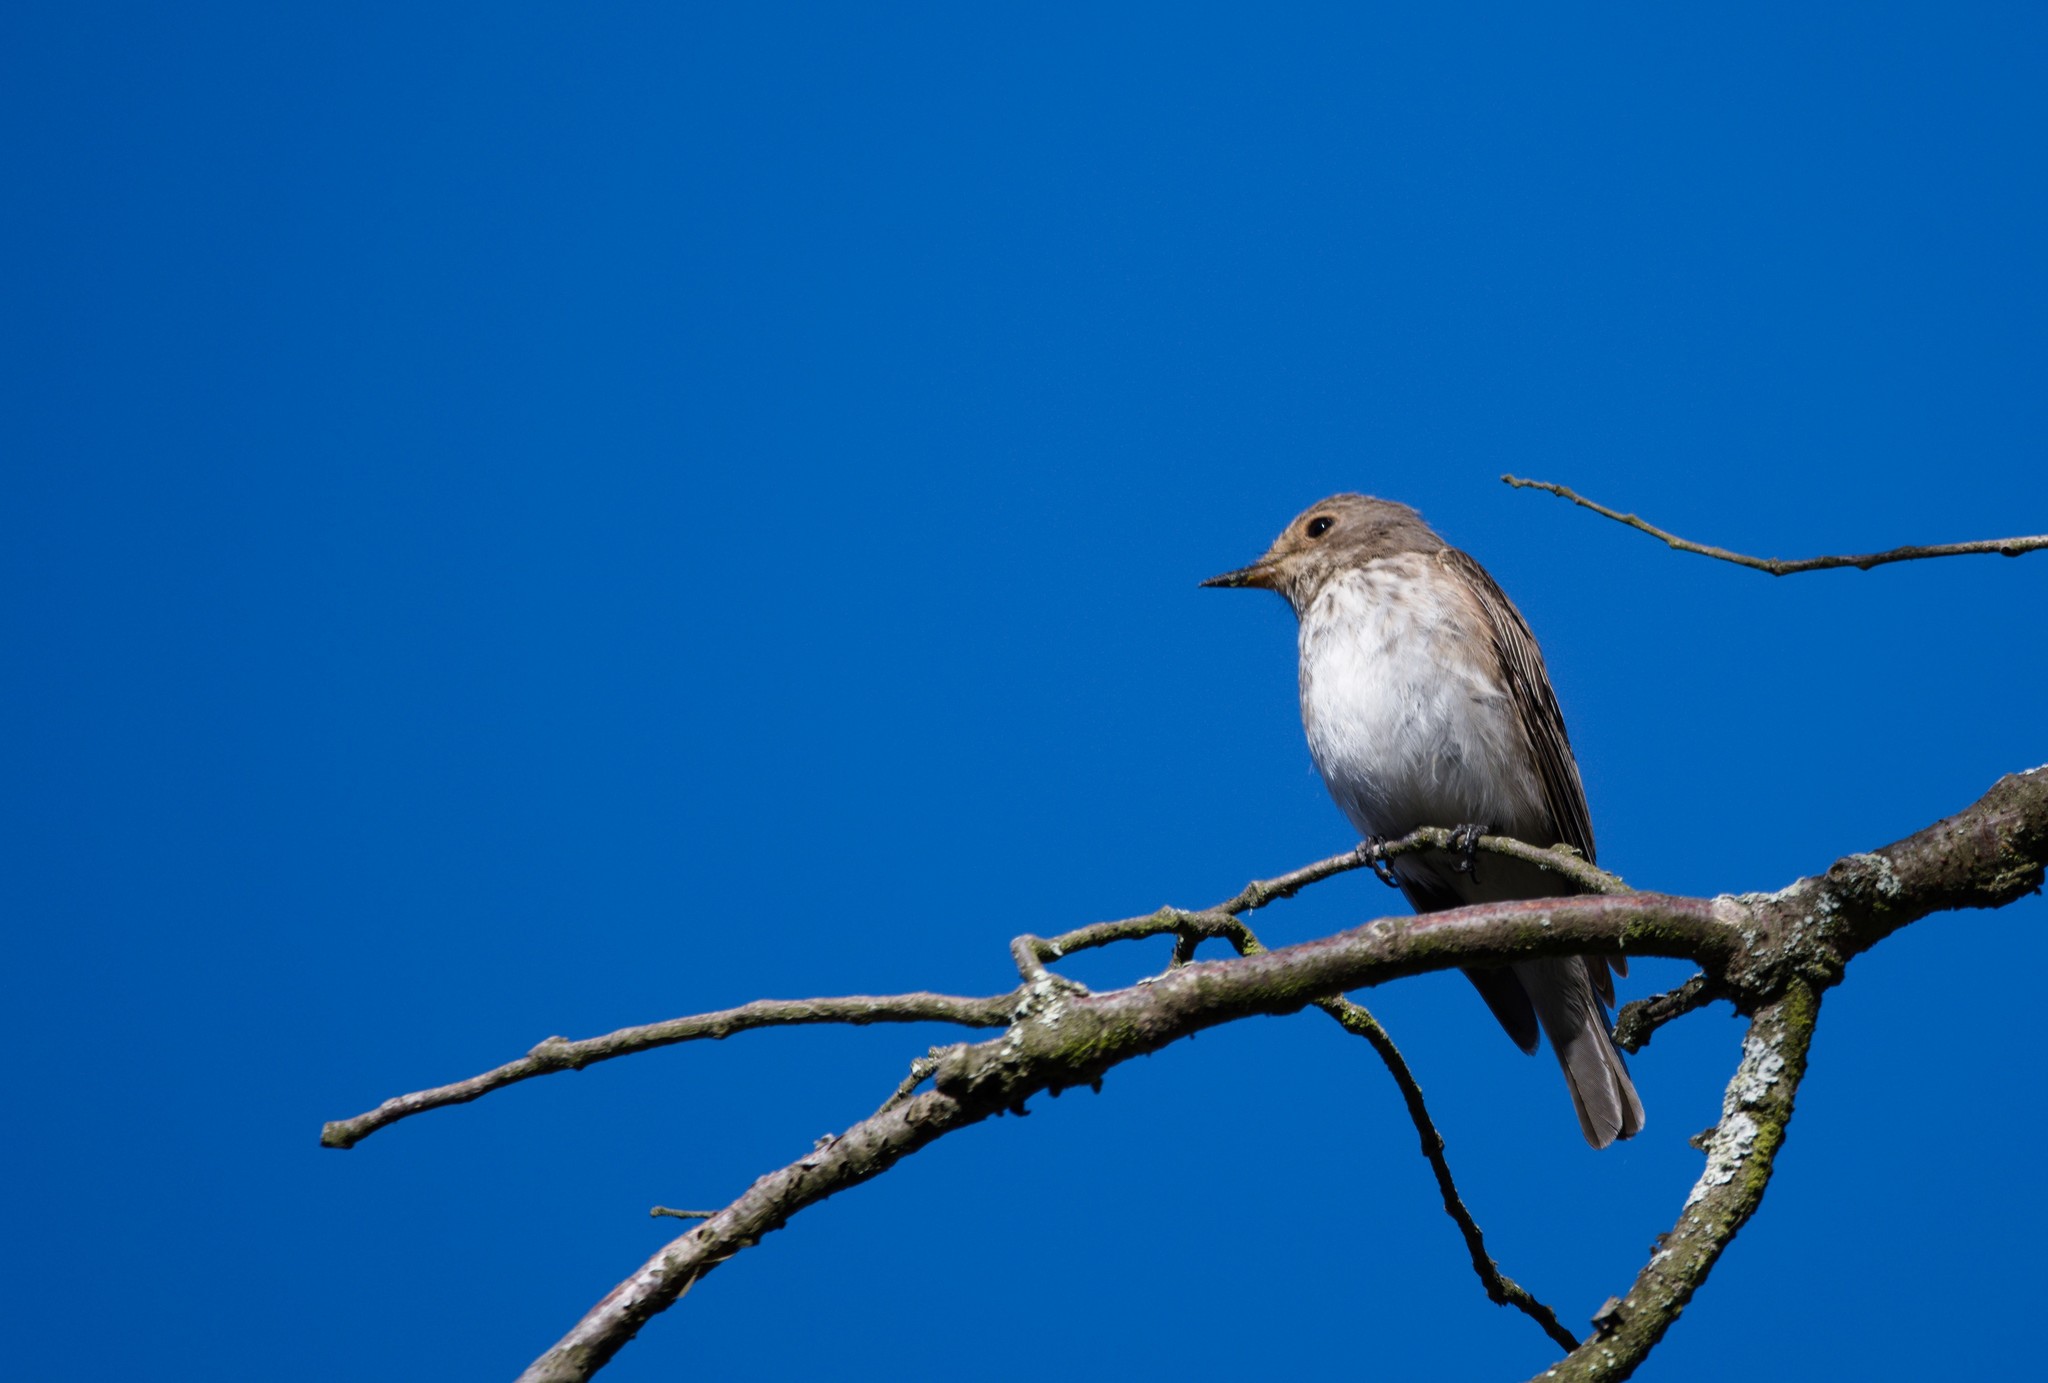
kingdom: Animalia
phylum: Chordata
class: Aves
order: Passeriformes
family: Muscicapidae
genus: Muscicapa
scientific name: Muscicapa striata
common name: Spotted flycatcher
